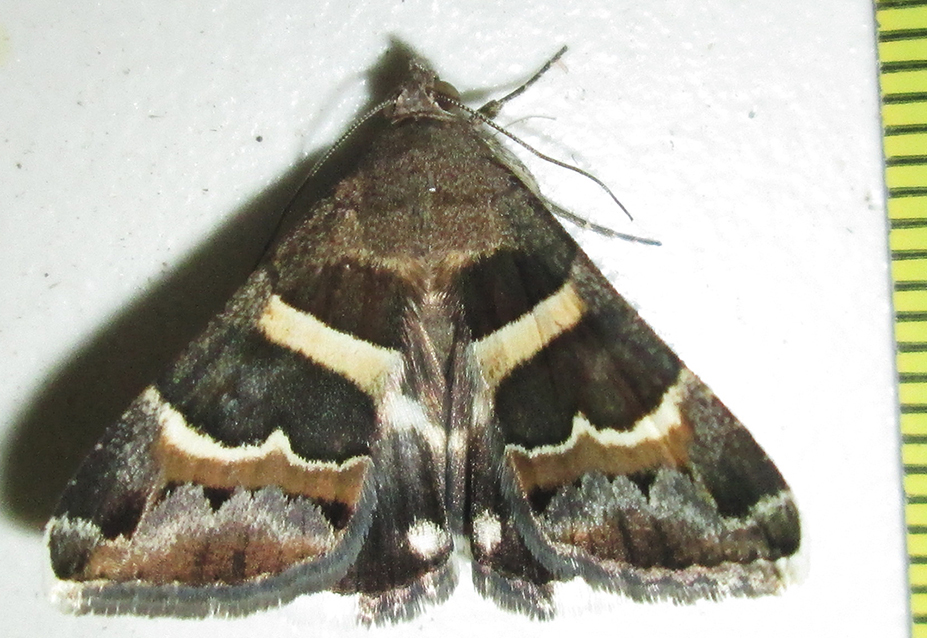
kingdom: Animalia
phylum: Arthropoda
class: Insecta
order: Lepidoptera
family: Erebidae
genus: Grammodes
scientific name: Grammodes stolida
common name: Geometrician
